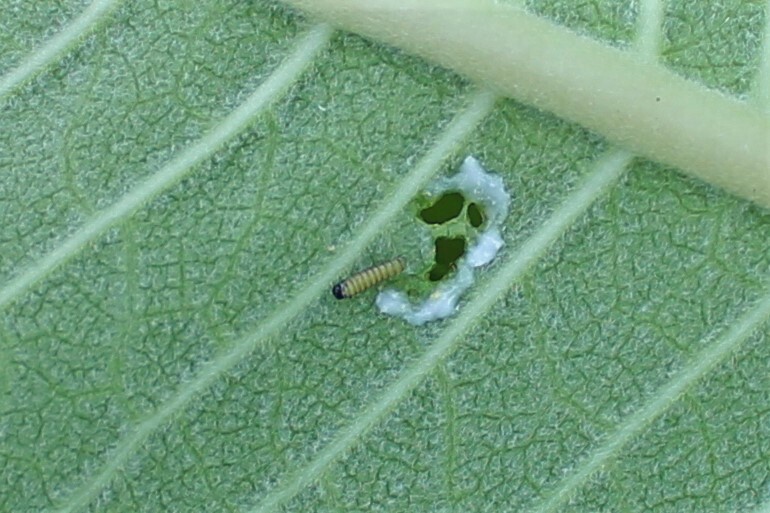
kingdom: Animalia
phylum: Arthropoda
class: Insecta
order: Lepidoptera
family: Nymphalidae
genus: Danaus
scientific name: Danaus plexippus
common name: Monarch
